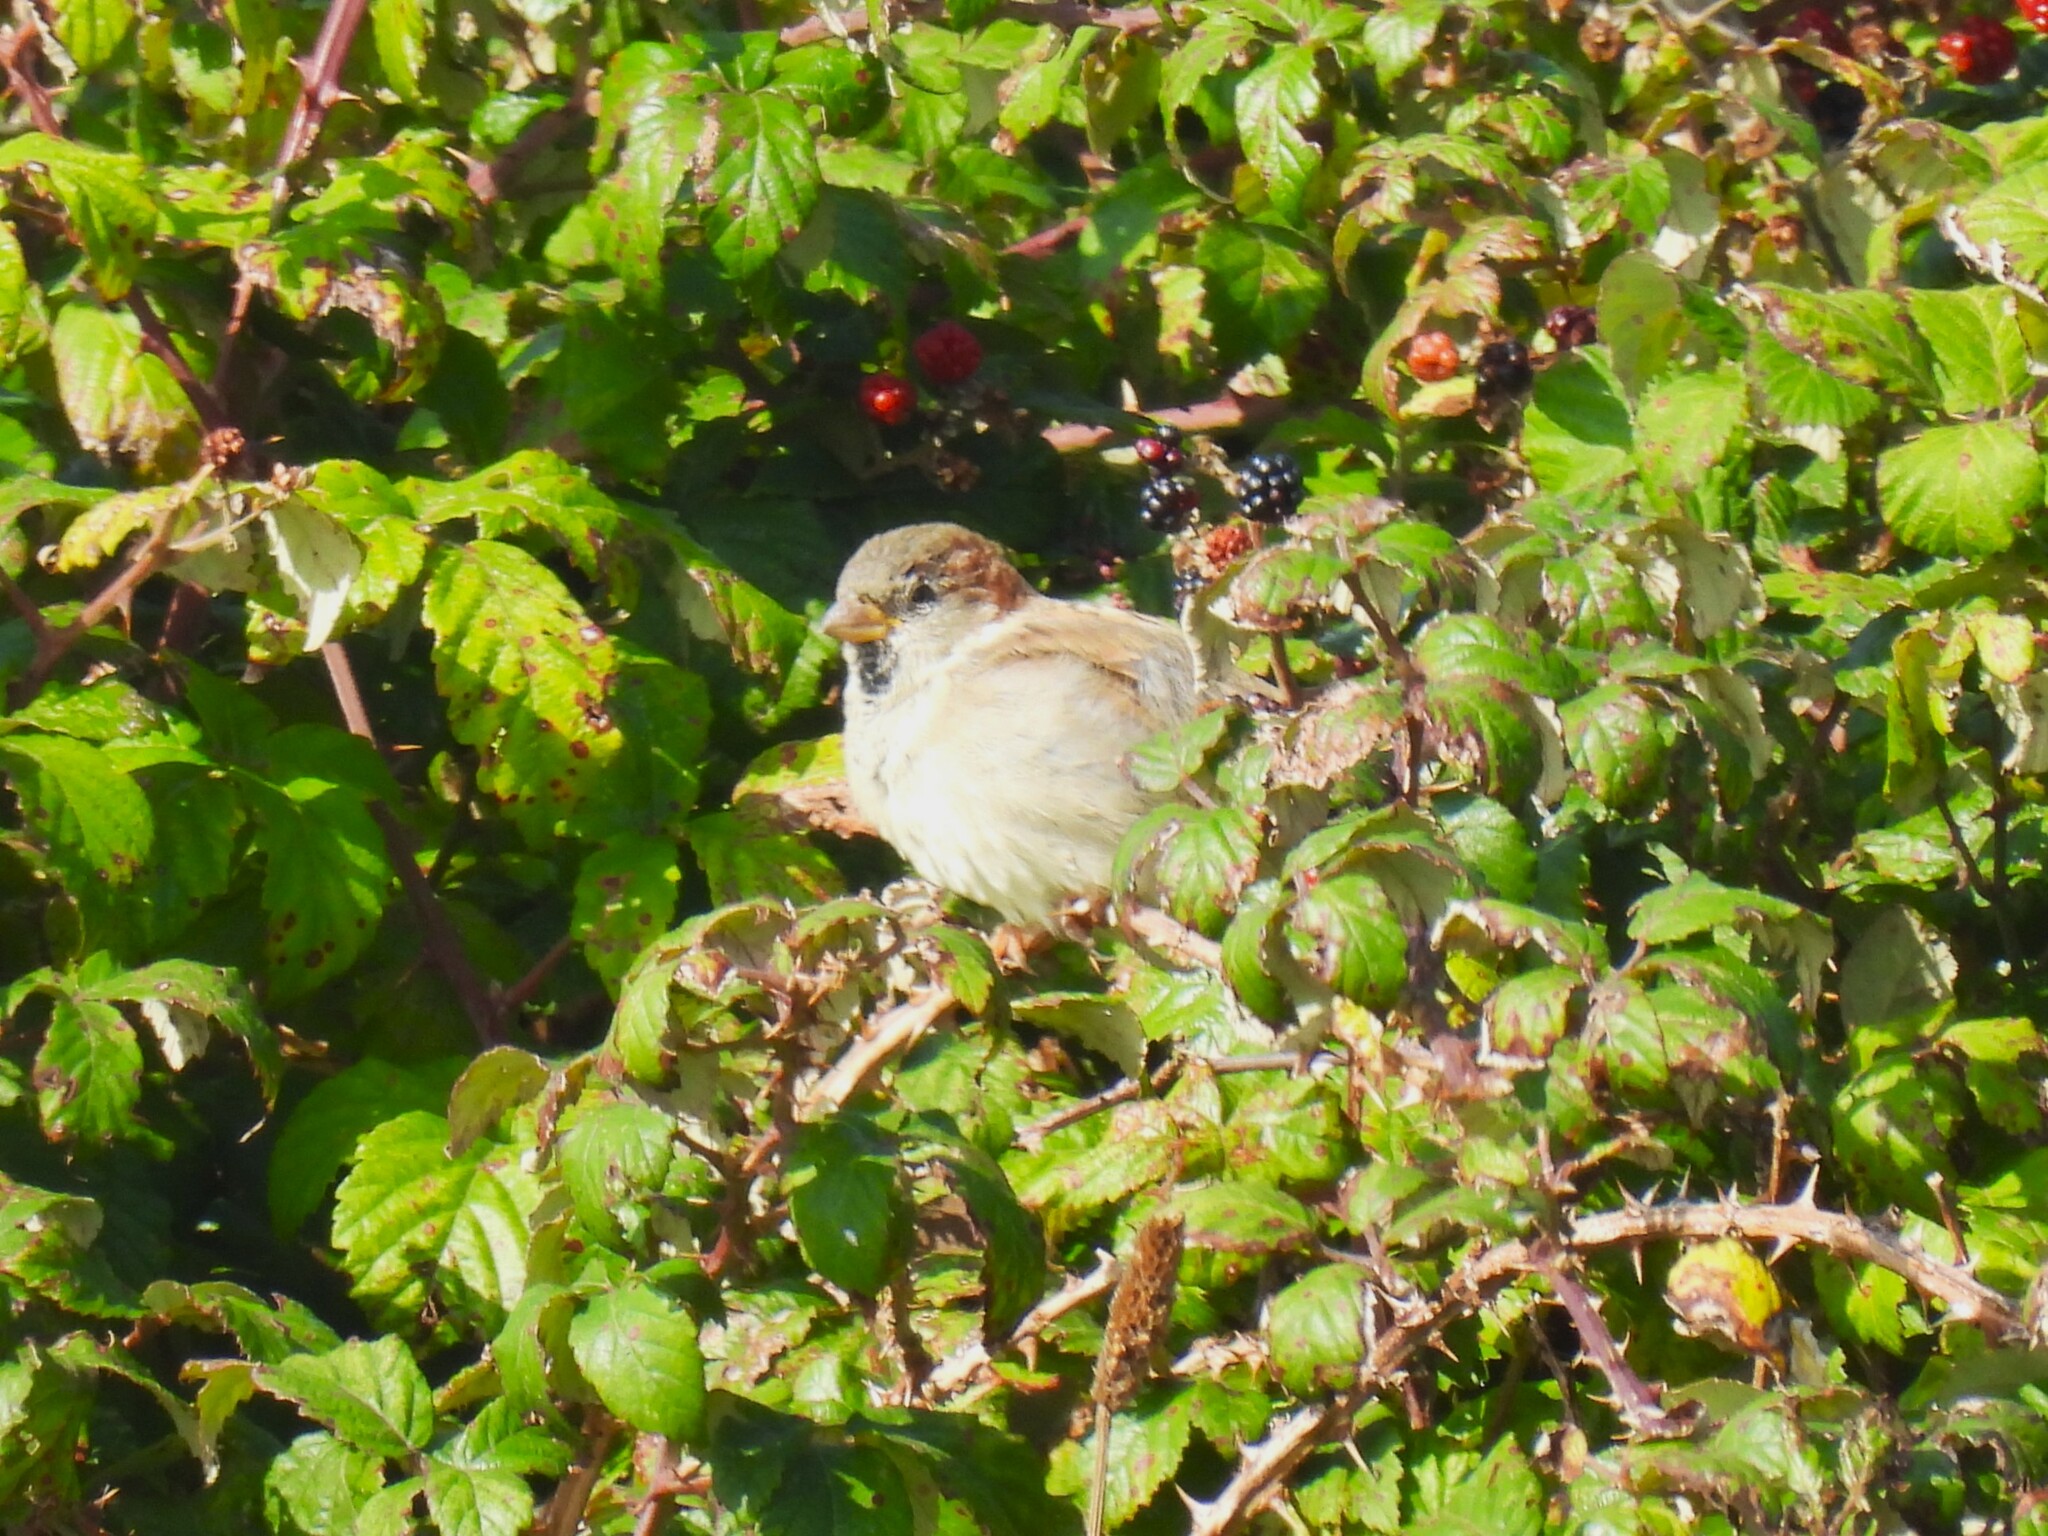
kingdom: Animalia
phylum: Chordata
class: Aves
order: Passeriformes
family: Passeridae
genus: Passer
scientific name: Passer domesticus
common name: House sparrow
